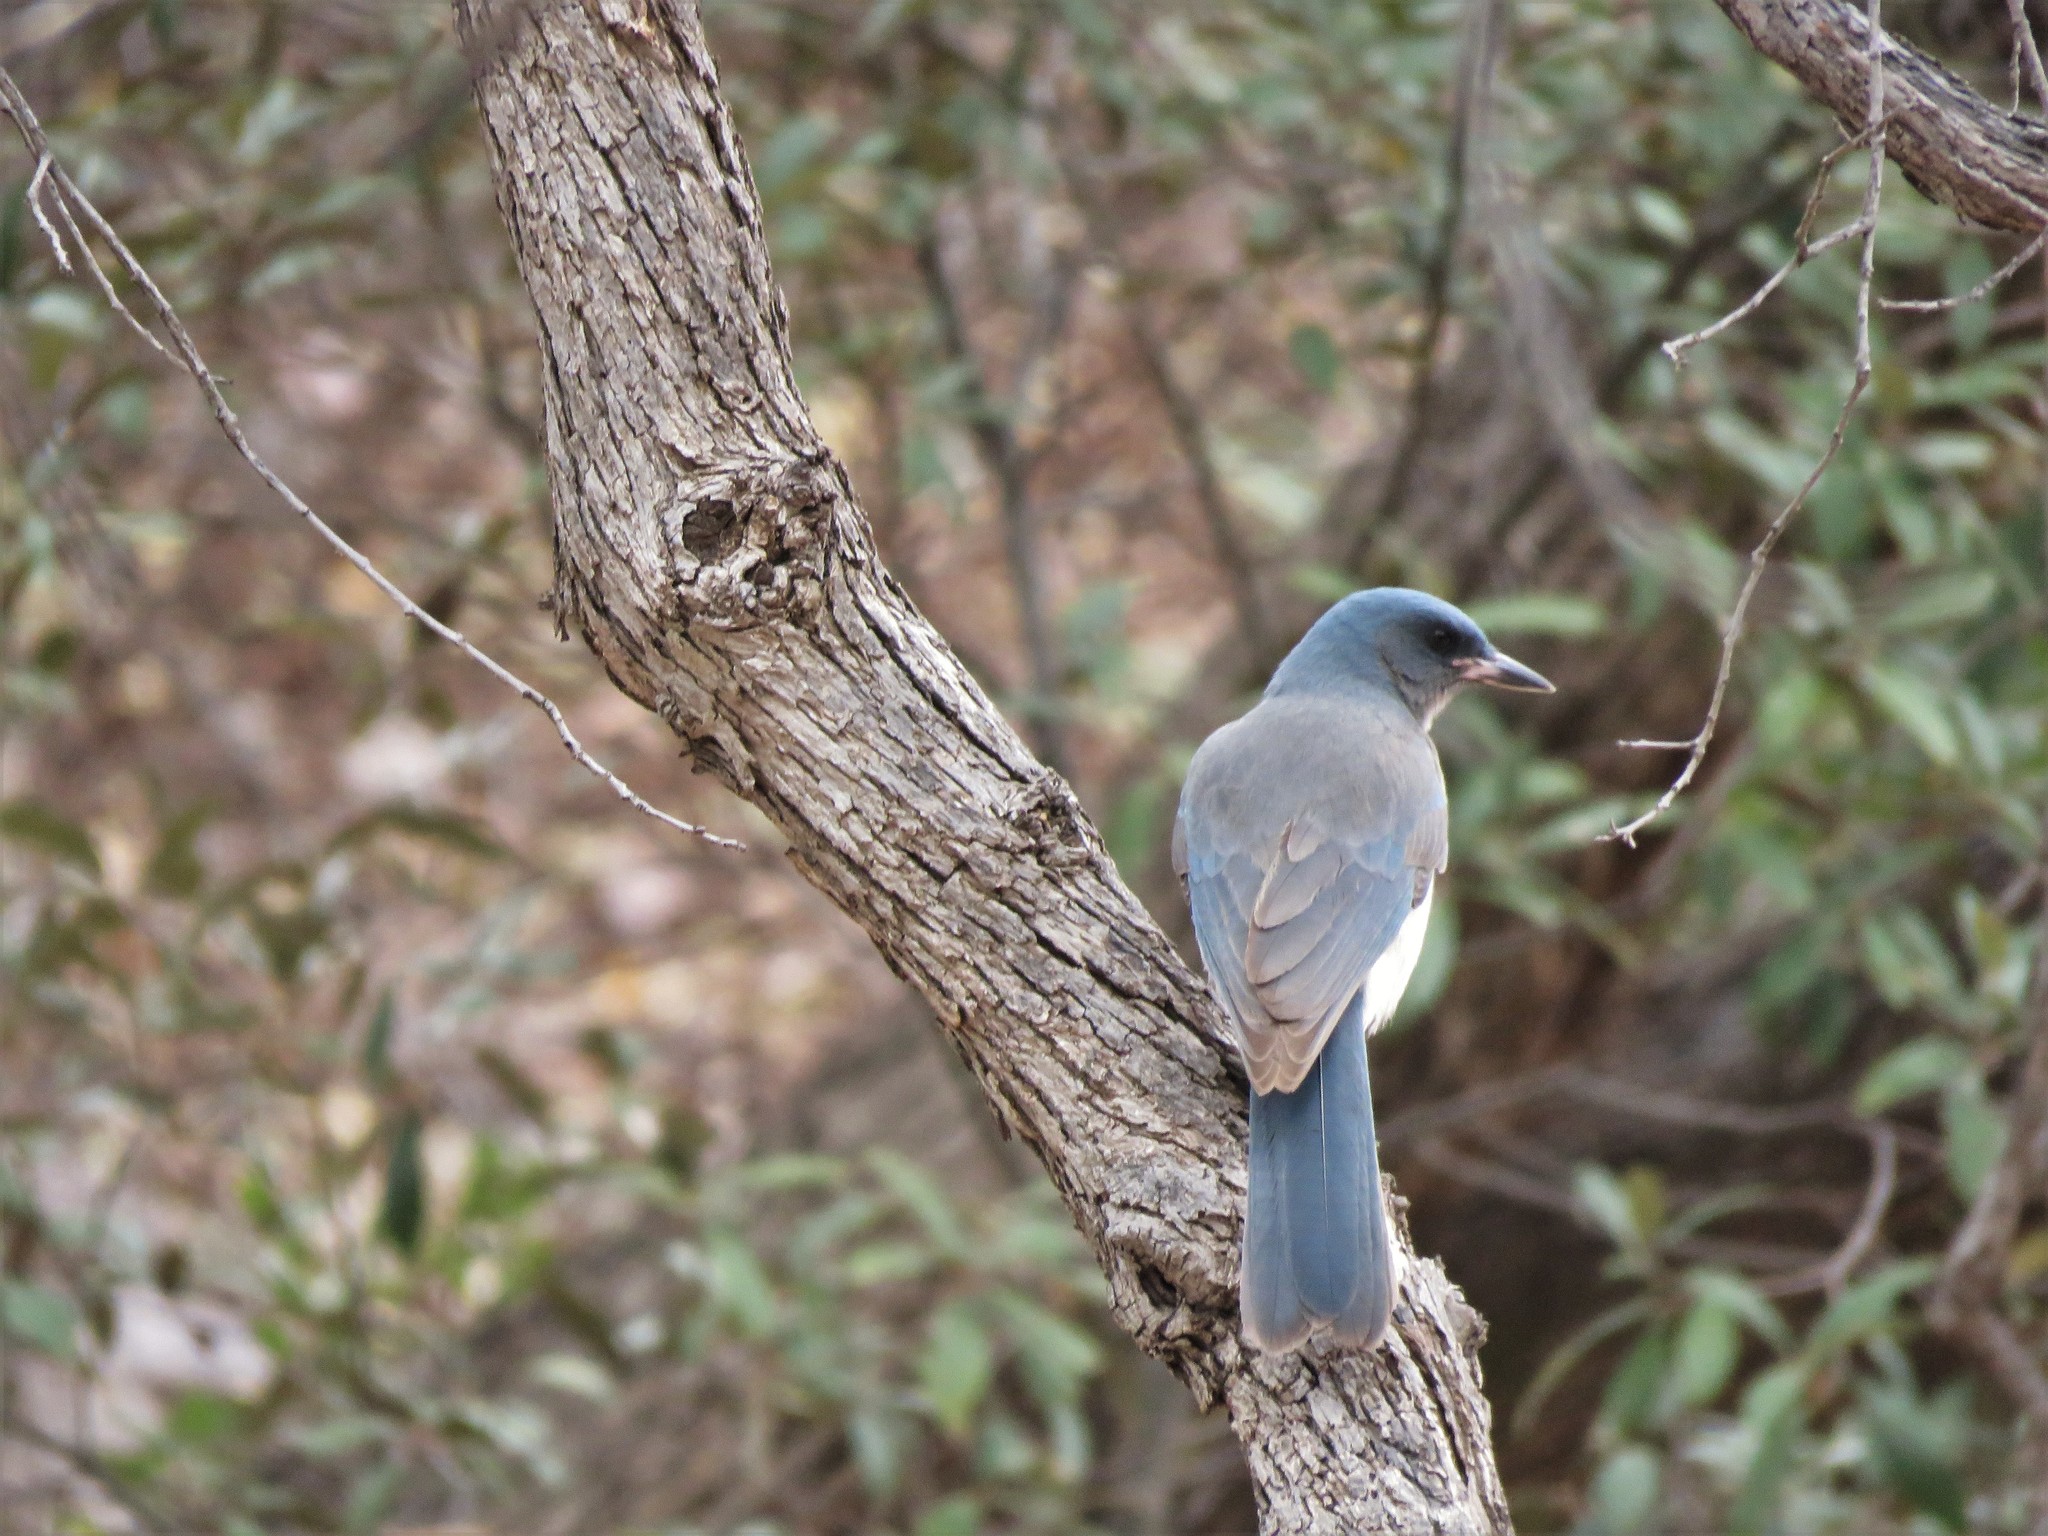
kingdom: Animalia
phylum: Chordata
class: Aves
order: Passeriformes
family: Corvidae
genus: Aphelocoma
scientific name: Aphelocoma wollweberi
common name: Mexican jay
